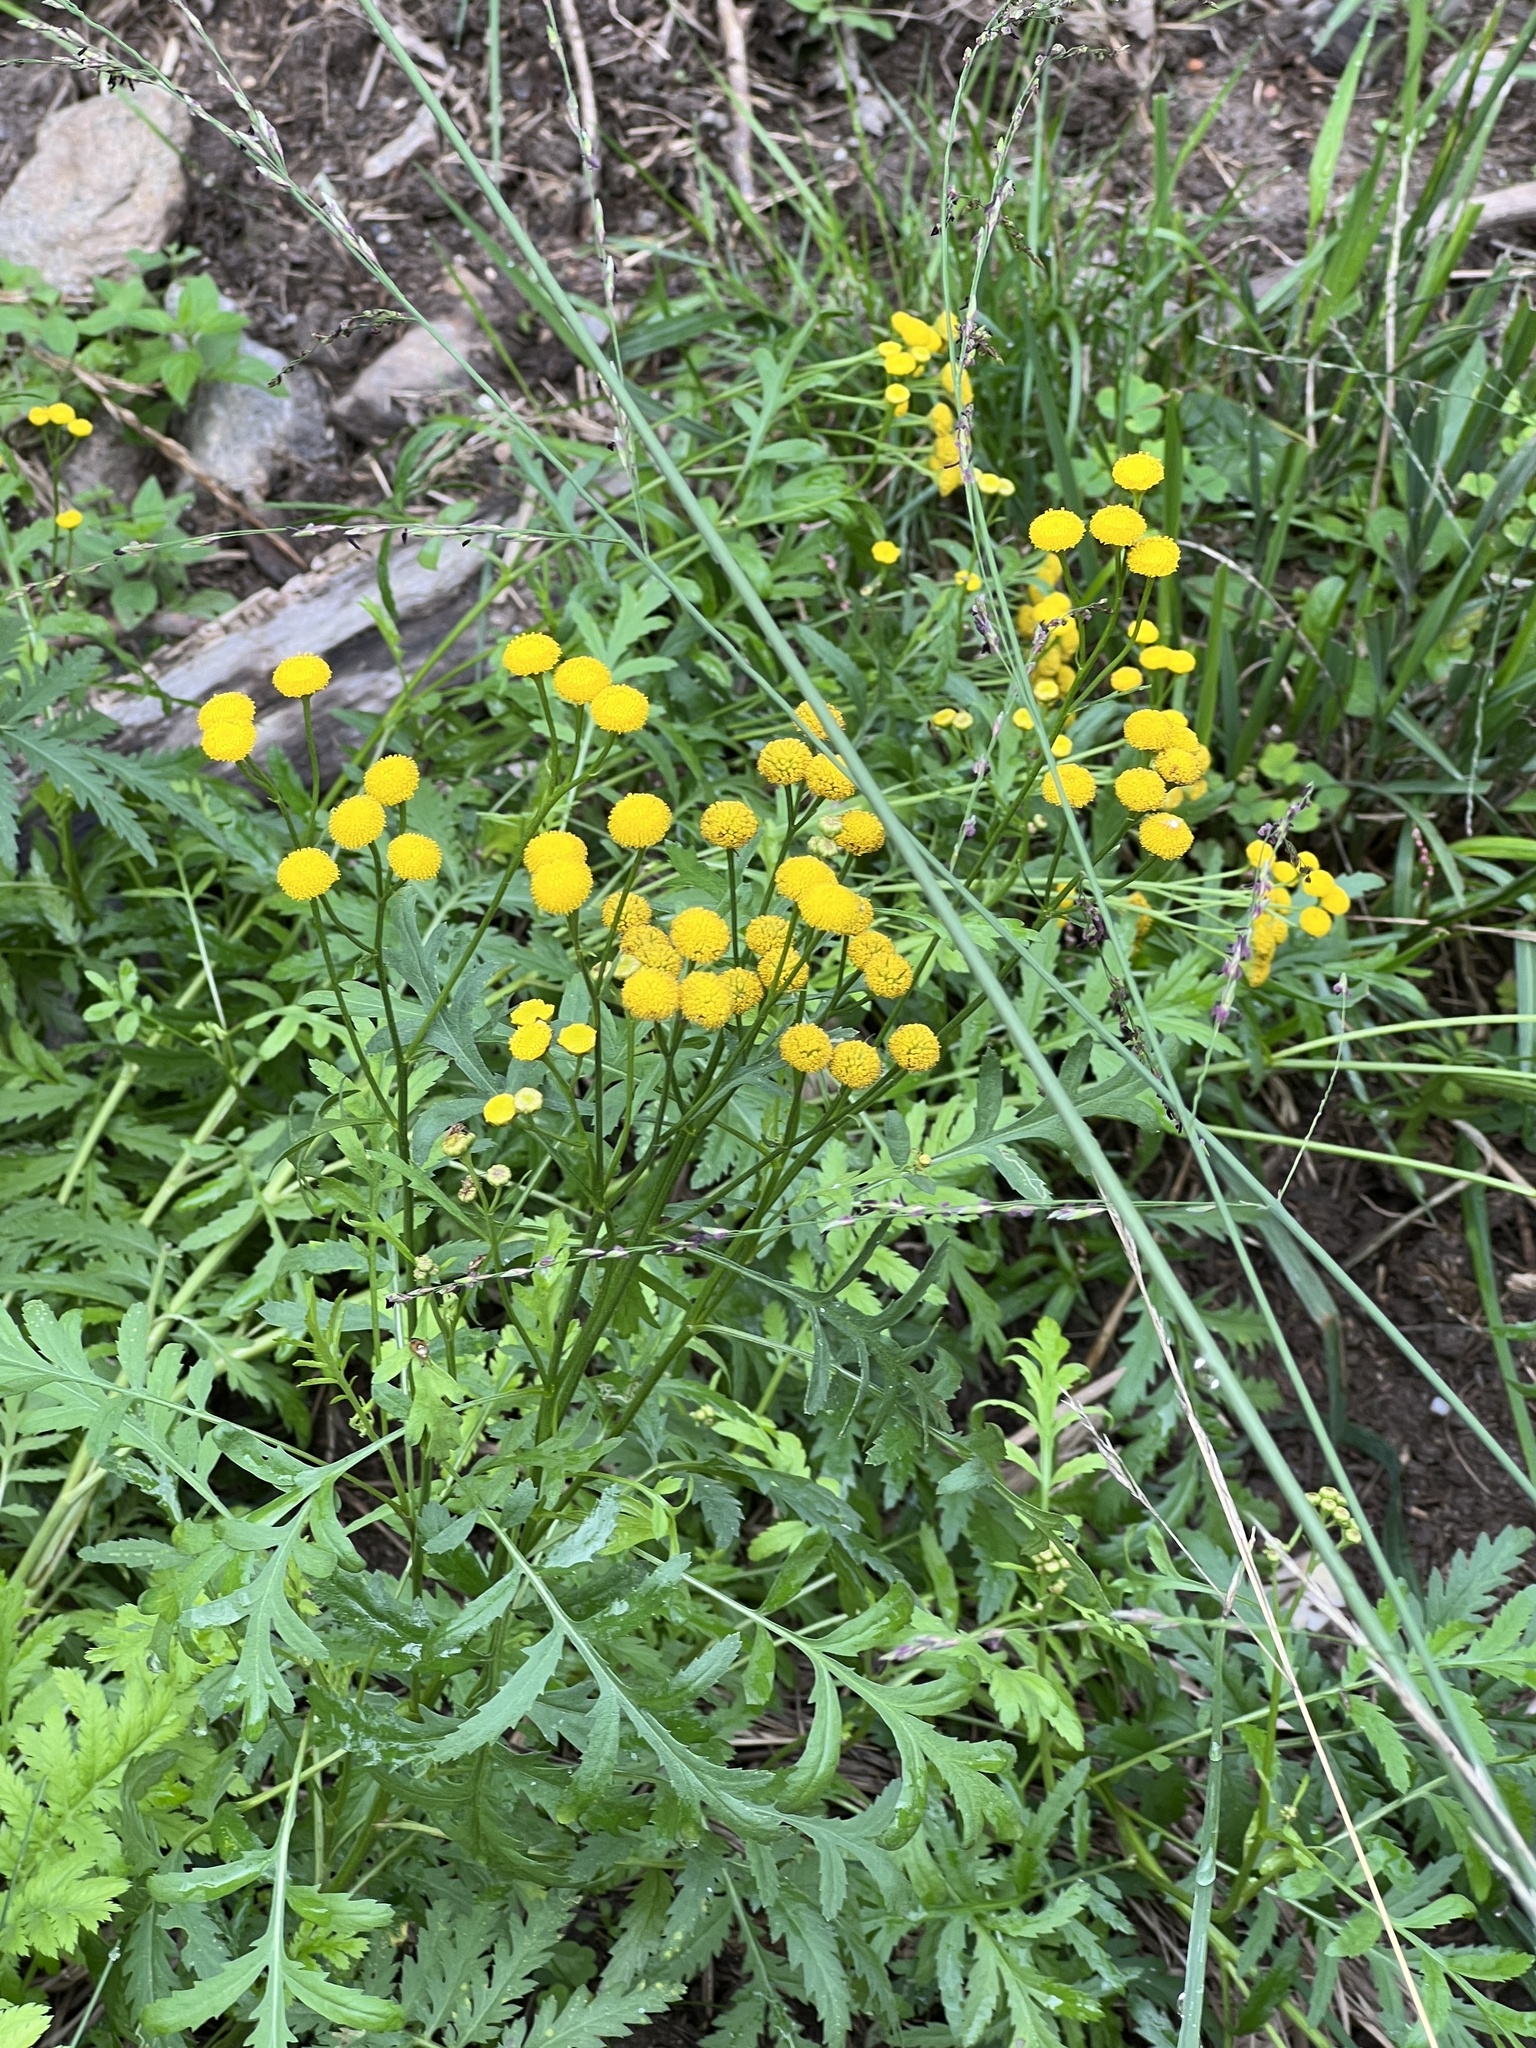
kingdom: Plantae
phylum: Tracheophyta
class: Magnoliopsida
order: Asterales
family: Asteraceae
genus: Tanacetum
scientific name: Tanacetum vulgare
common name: Common tansy
